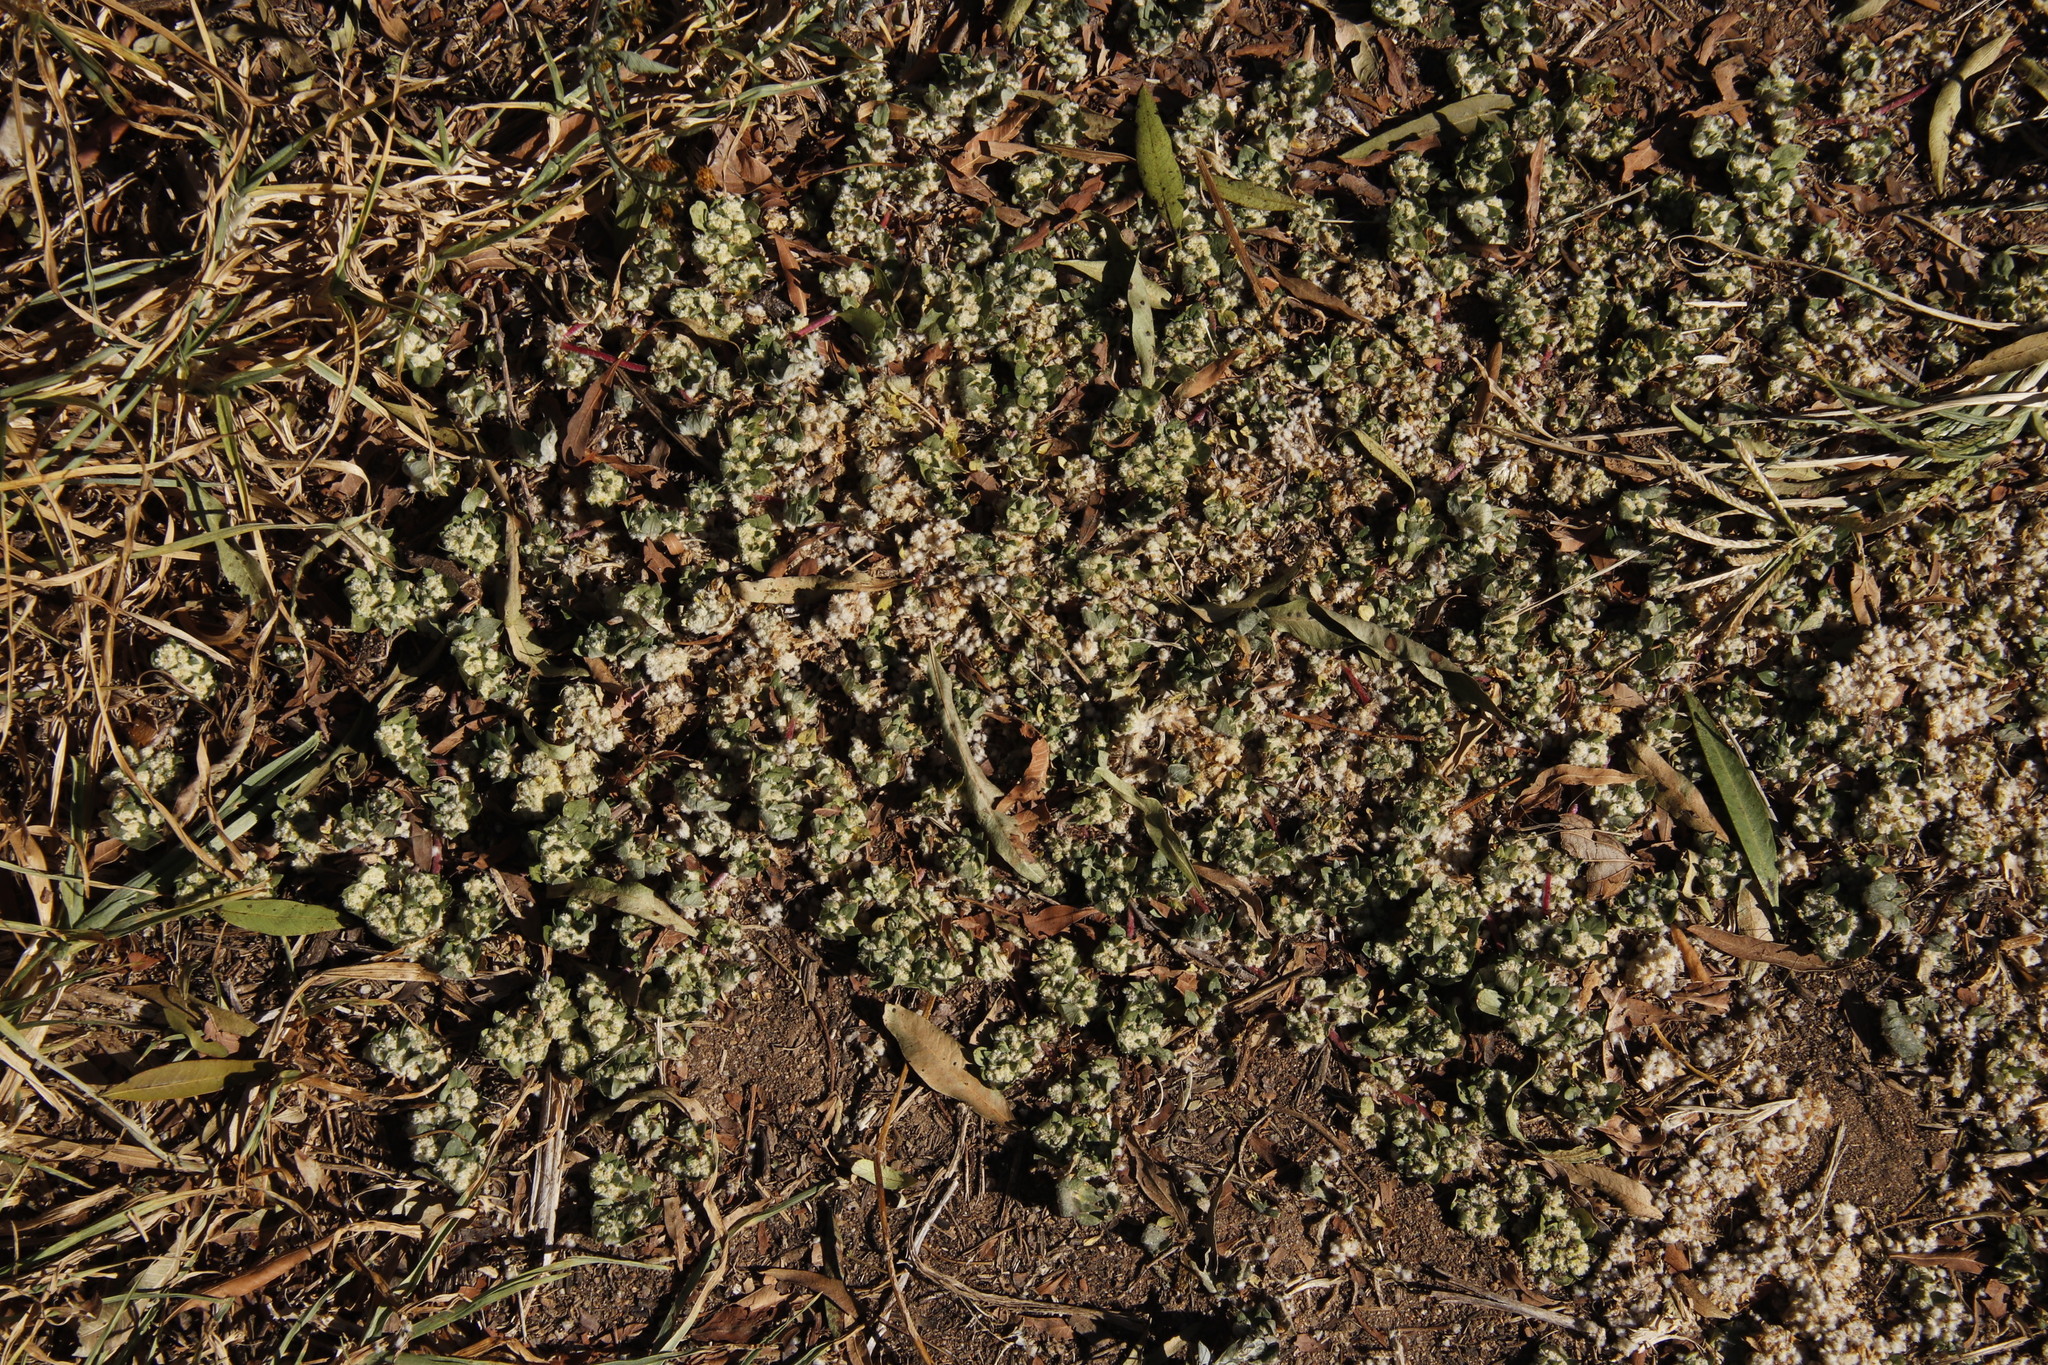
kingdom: Plantae
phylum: Tracheophyta
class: Magnoliopsida
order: Caryophyllales
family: Amaranthaceae
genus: Guilleminea
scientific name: Guilleminea densa
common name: Small matweed
